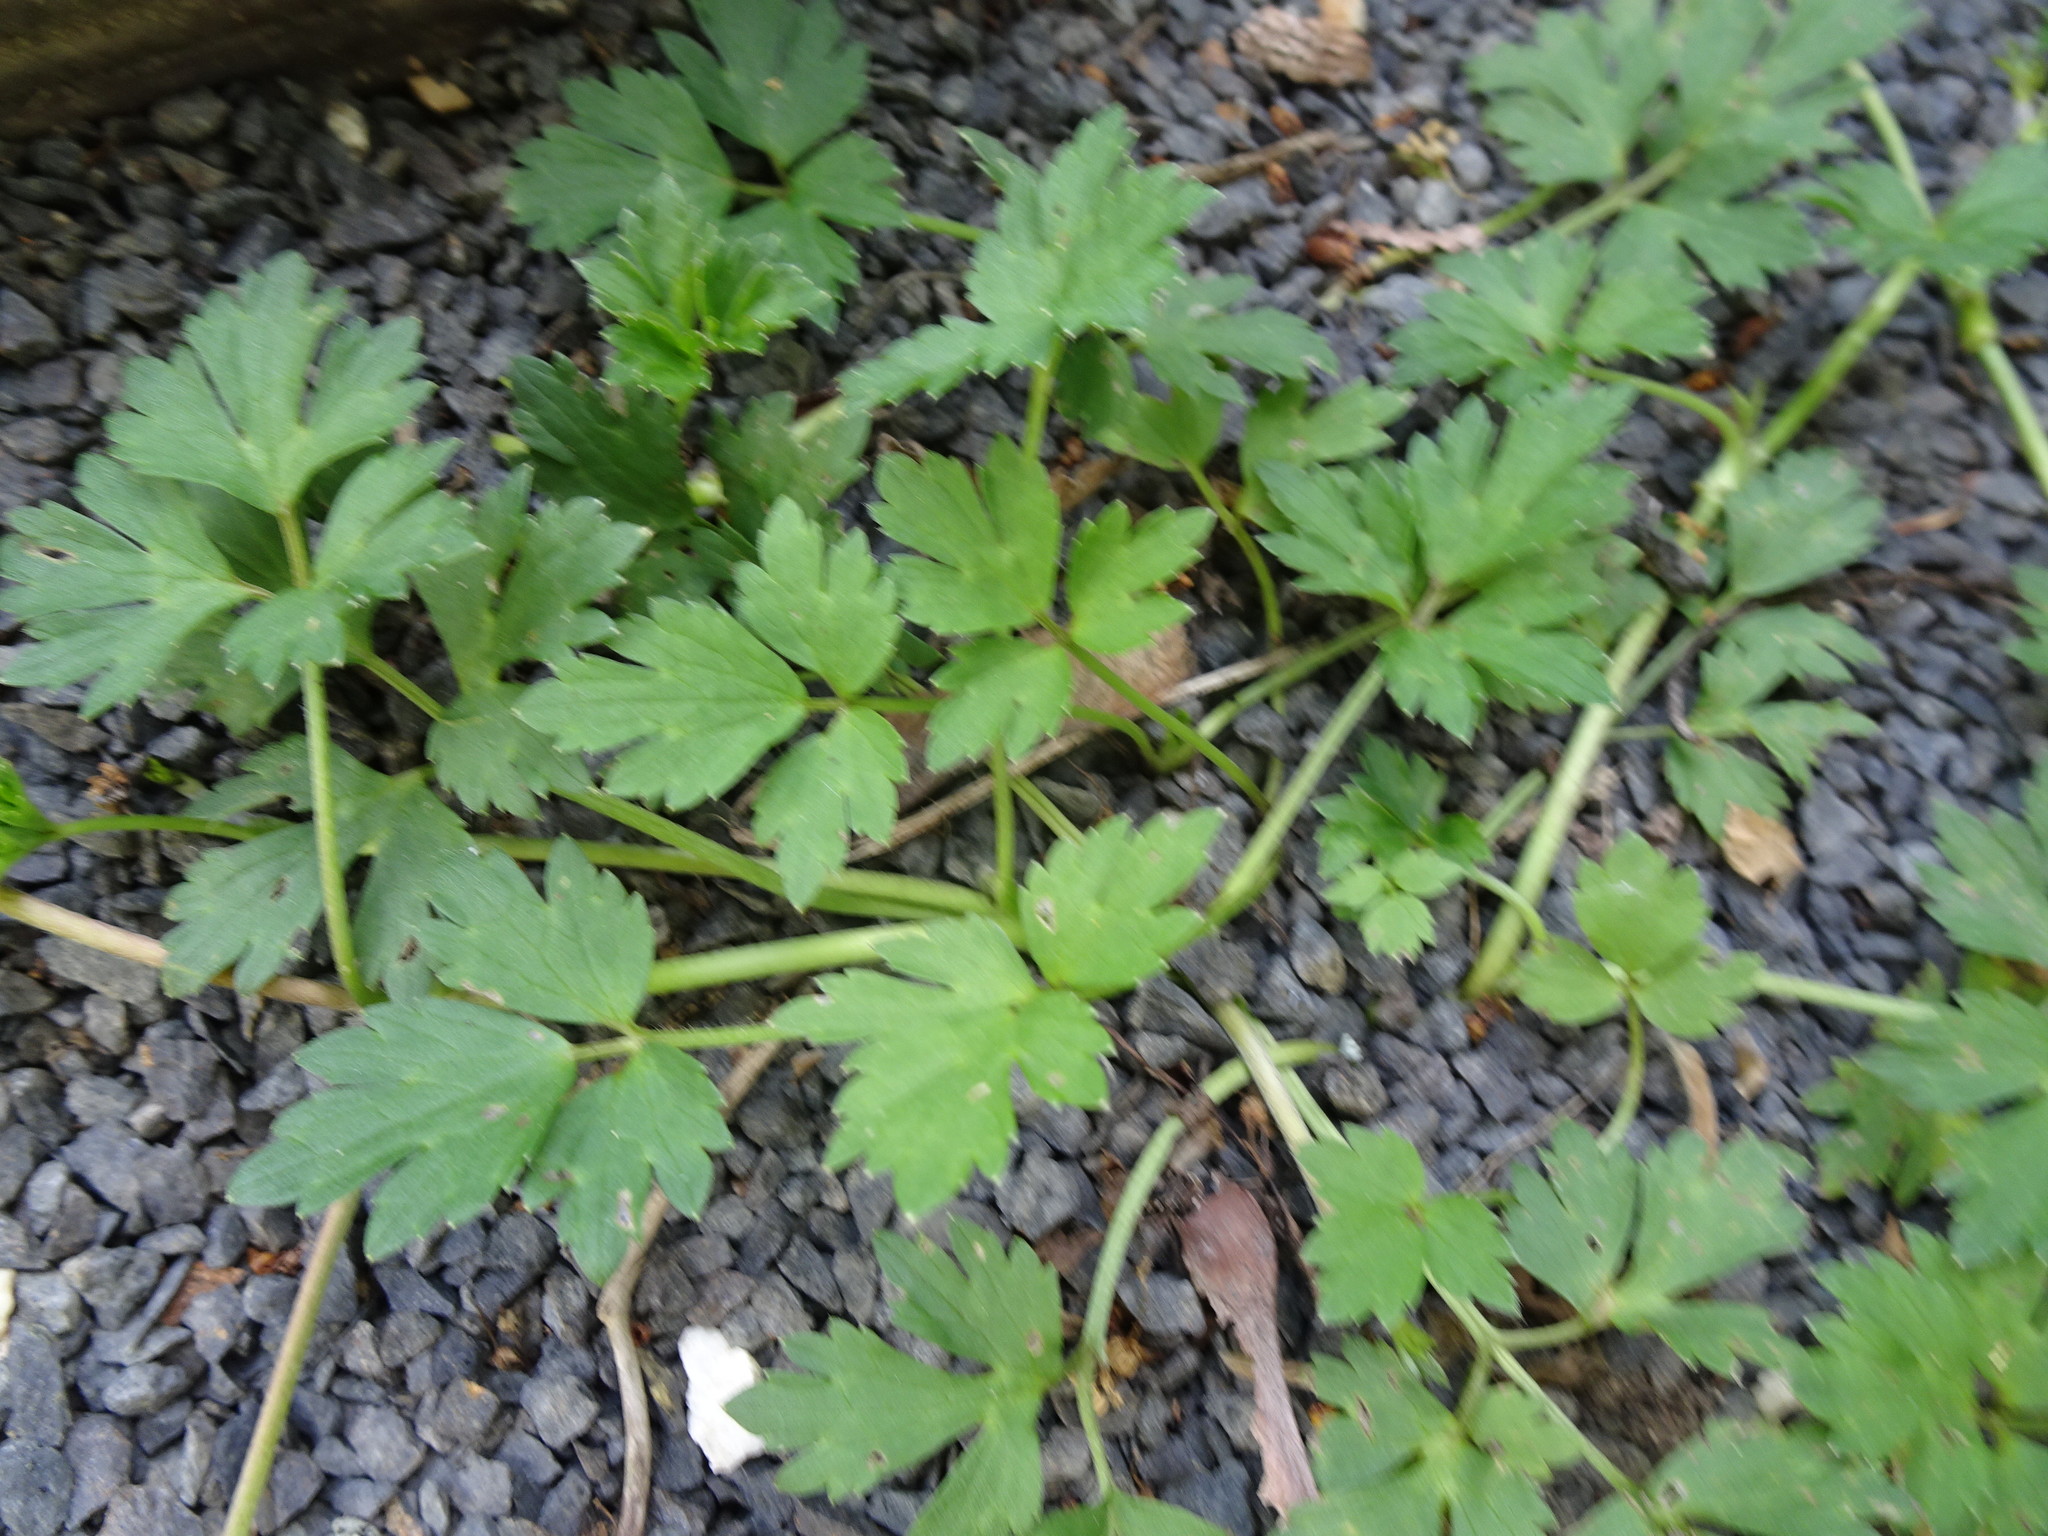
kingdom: Plantae
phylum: Tracheophyta
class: Magnoliopsida
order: Ranunculales
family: Ranunculaceae
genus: Ranunculus
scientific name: Ranunculus repens
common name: Creeping buttercup
